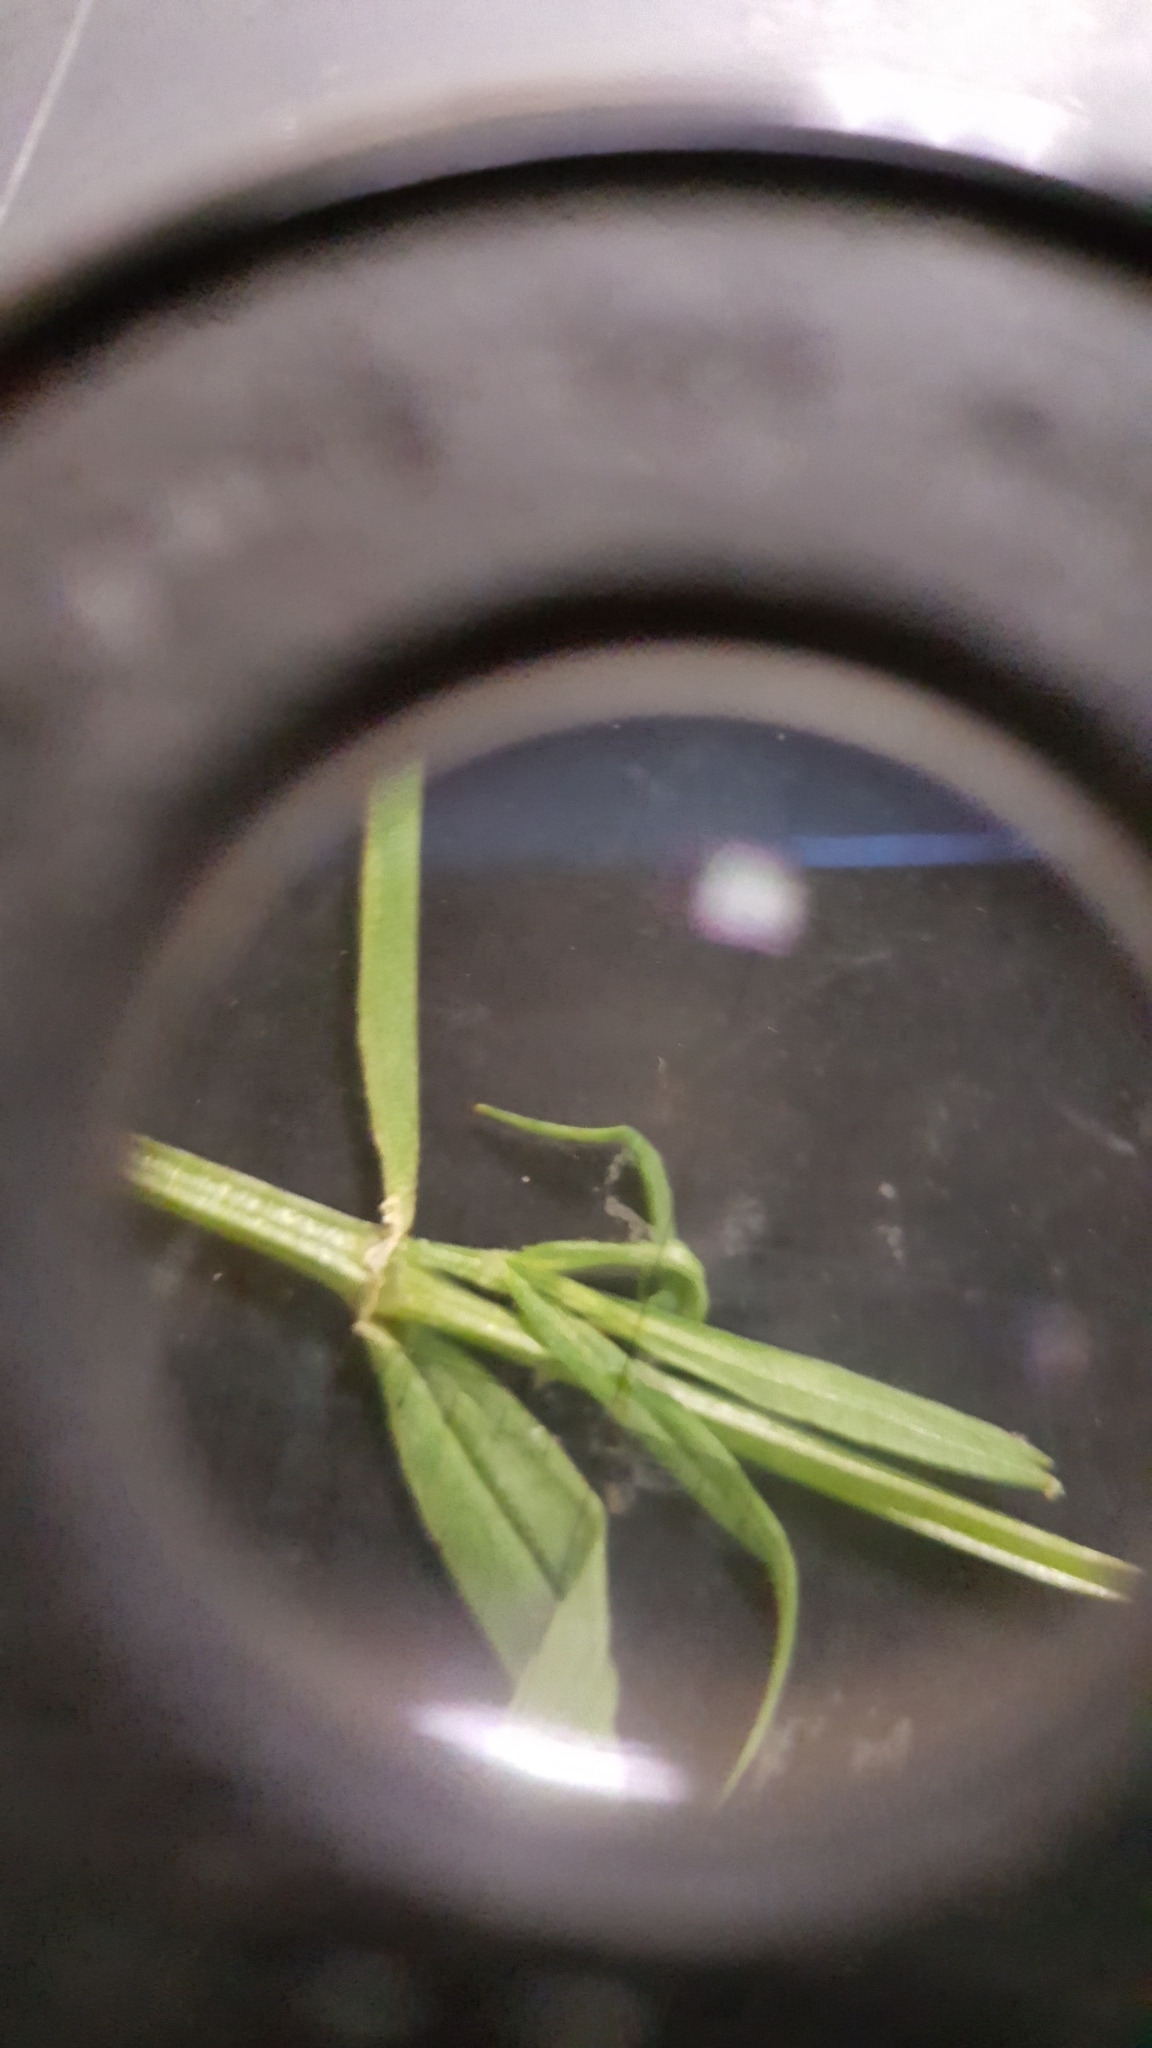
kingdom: Plantae
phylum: Tracheophyta
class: Magnoliopsida
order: Caryophyllales
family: Caryophyllaceae
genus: Stellaria
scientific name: Stellaria graminea
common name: Grass-like starwort
